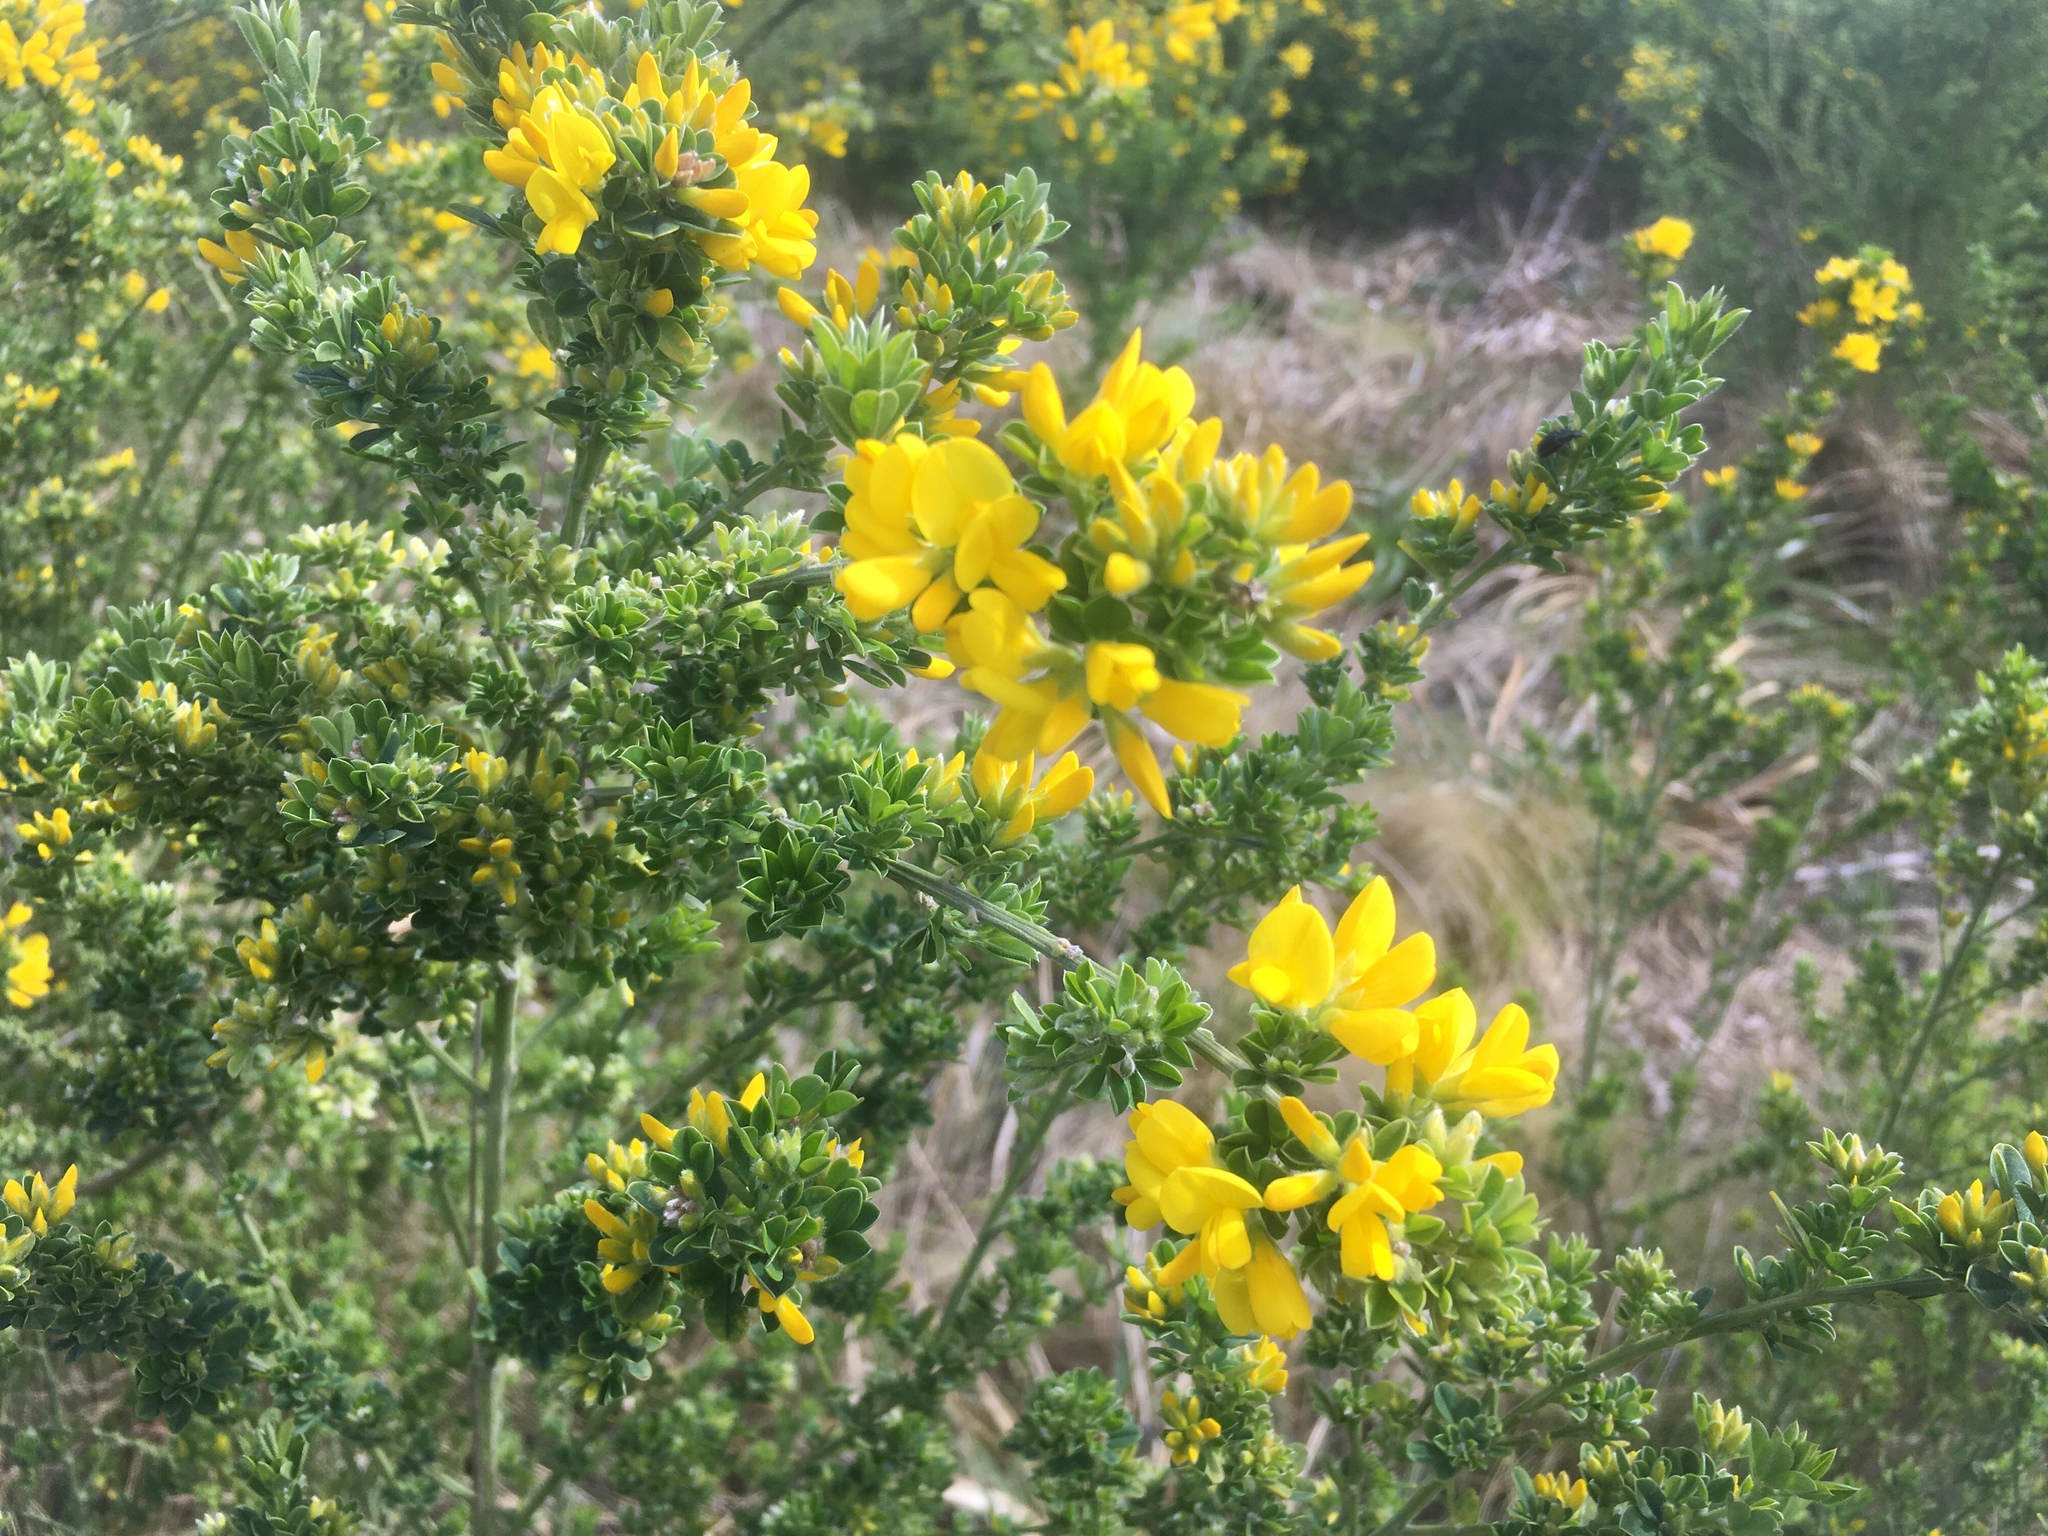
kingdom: Plantae
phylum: Tracheophyta
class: Magnoliopsida
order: Fabales
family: Fabaceae
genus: Genista
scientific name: Genista monspessulana
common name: Montpellier broom
